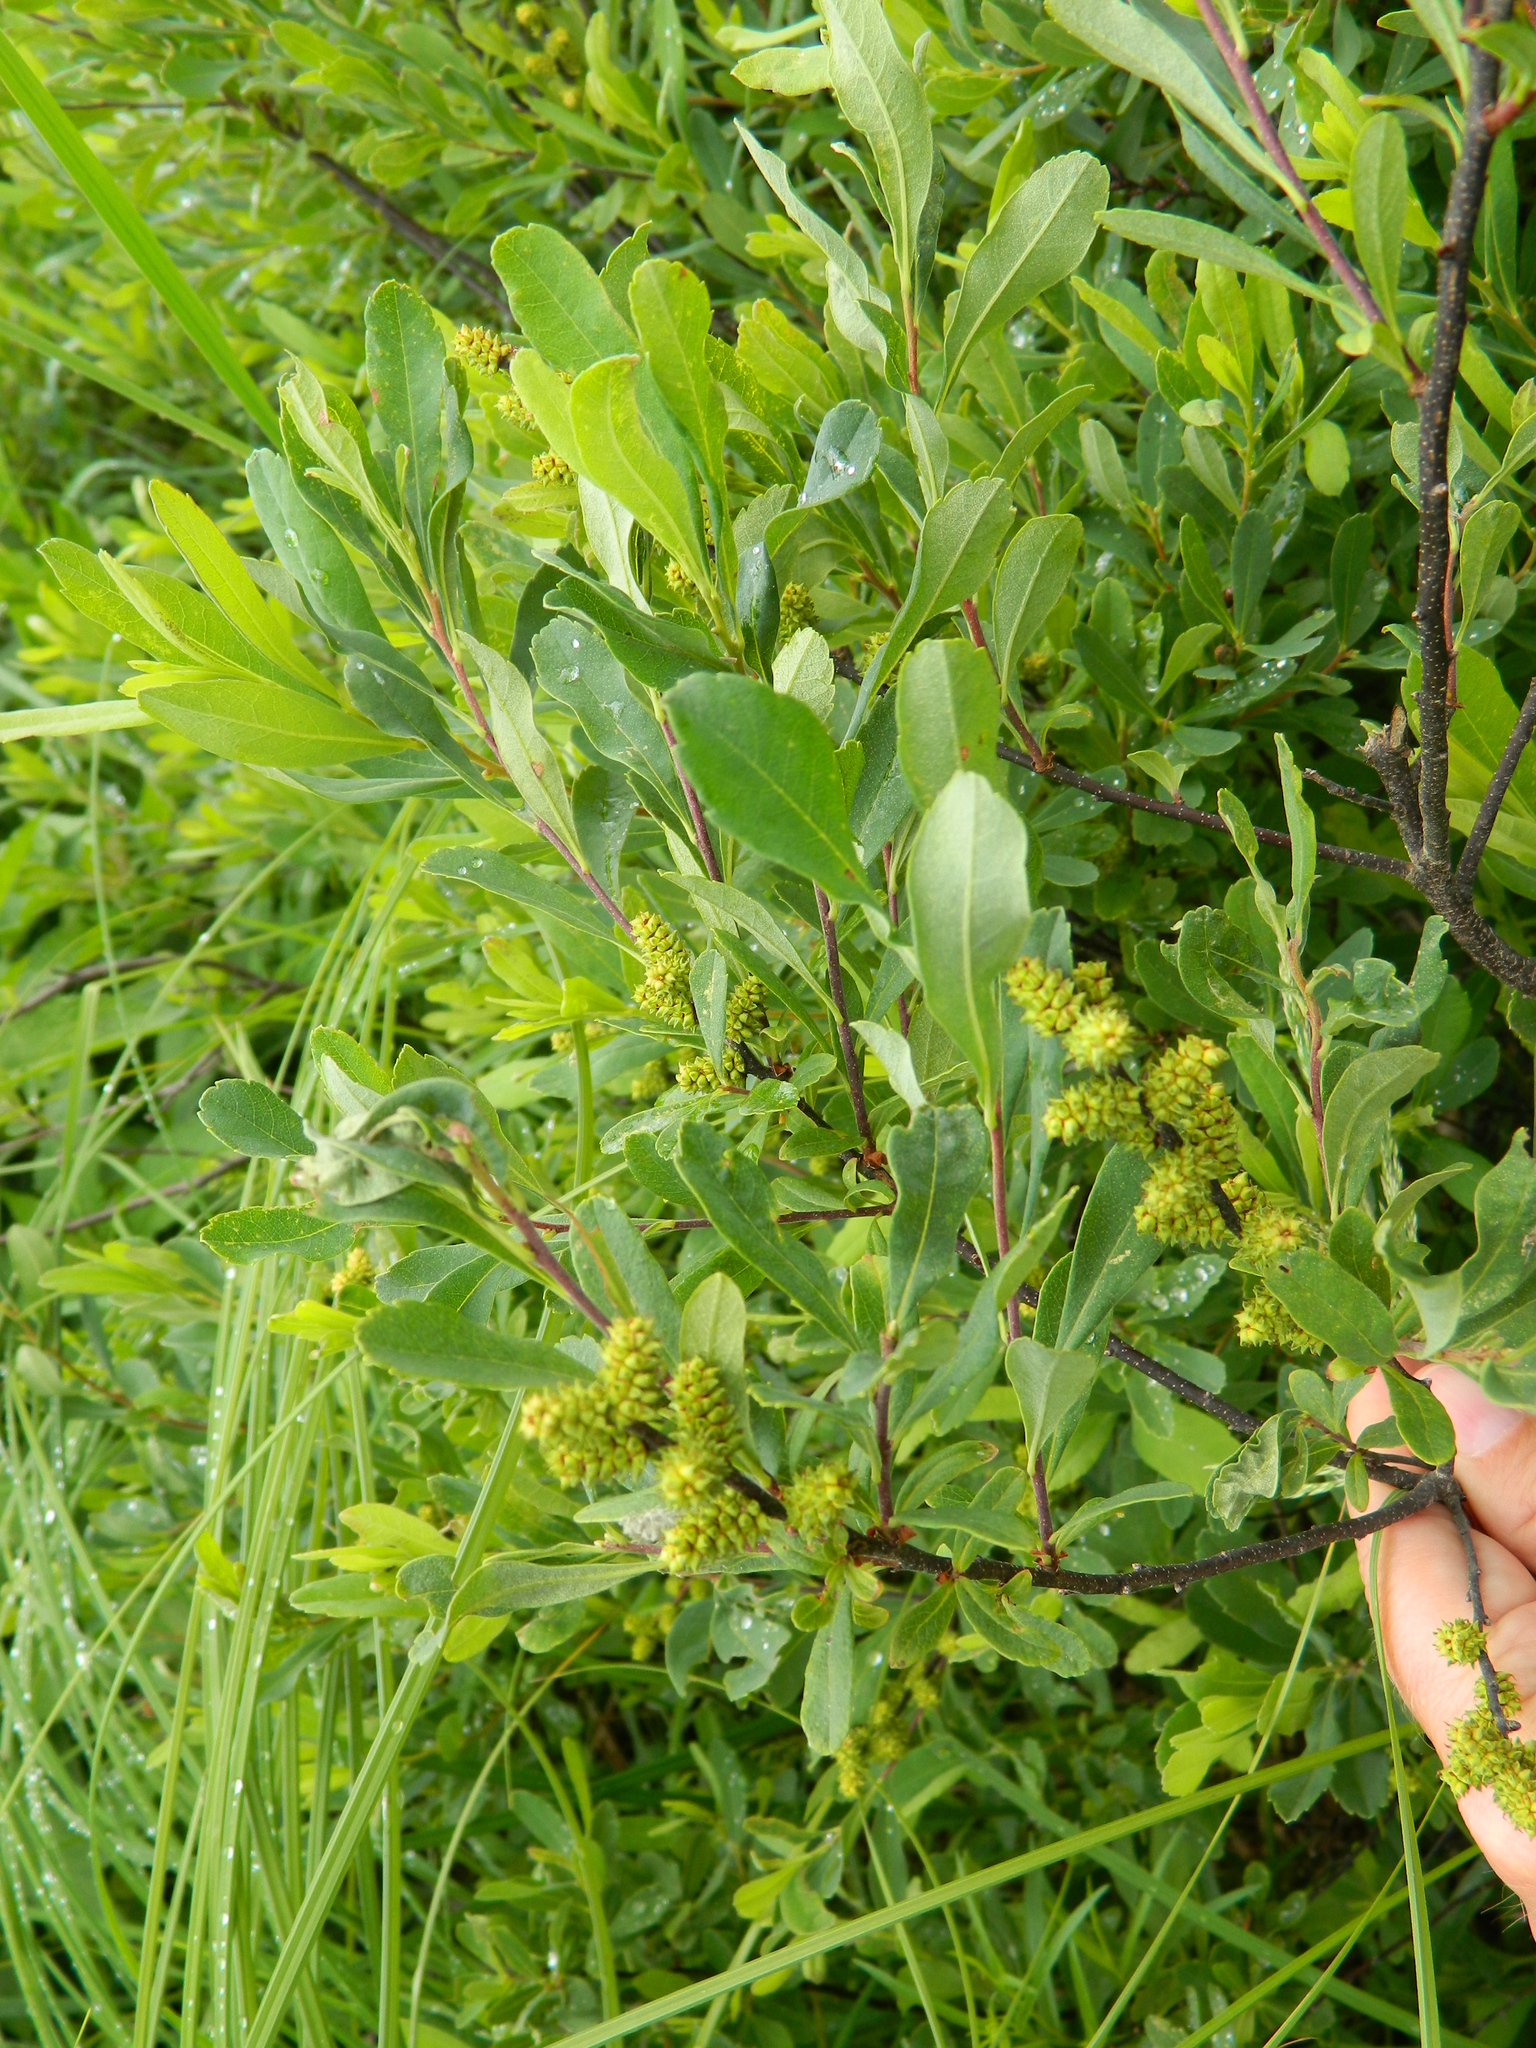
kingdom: Plantae
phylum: Tracheophyta
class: Magnoliopsida
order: Fagales
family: Myricaceae
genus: Myrica
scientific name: Myrica gale
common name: Sweet gale
